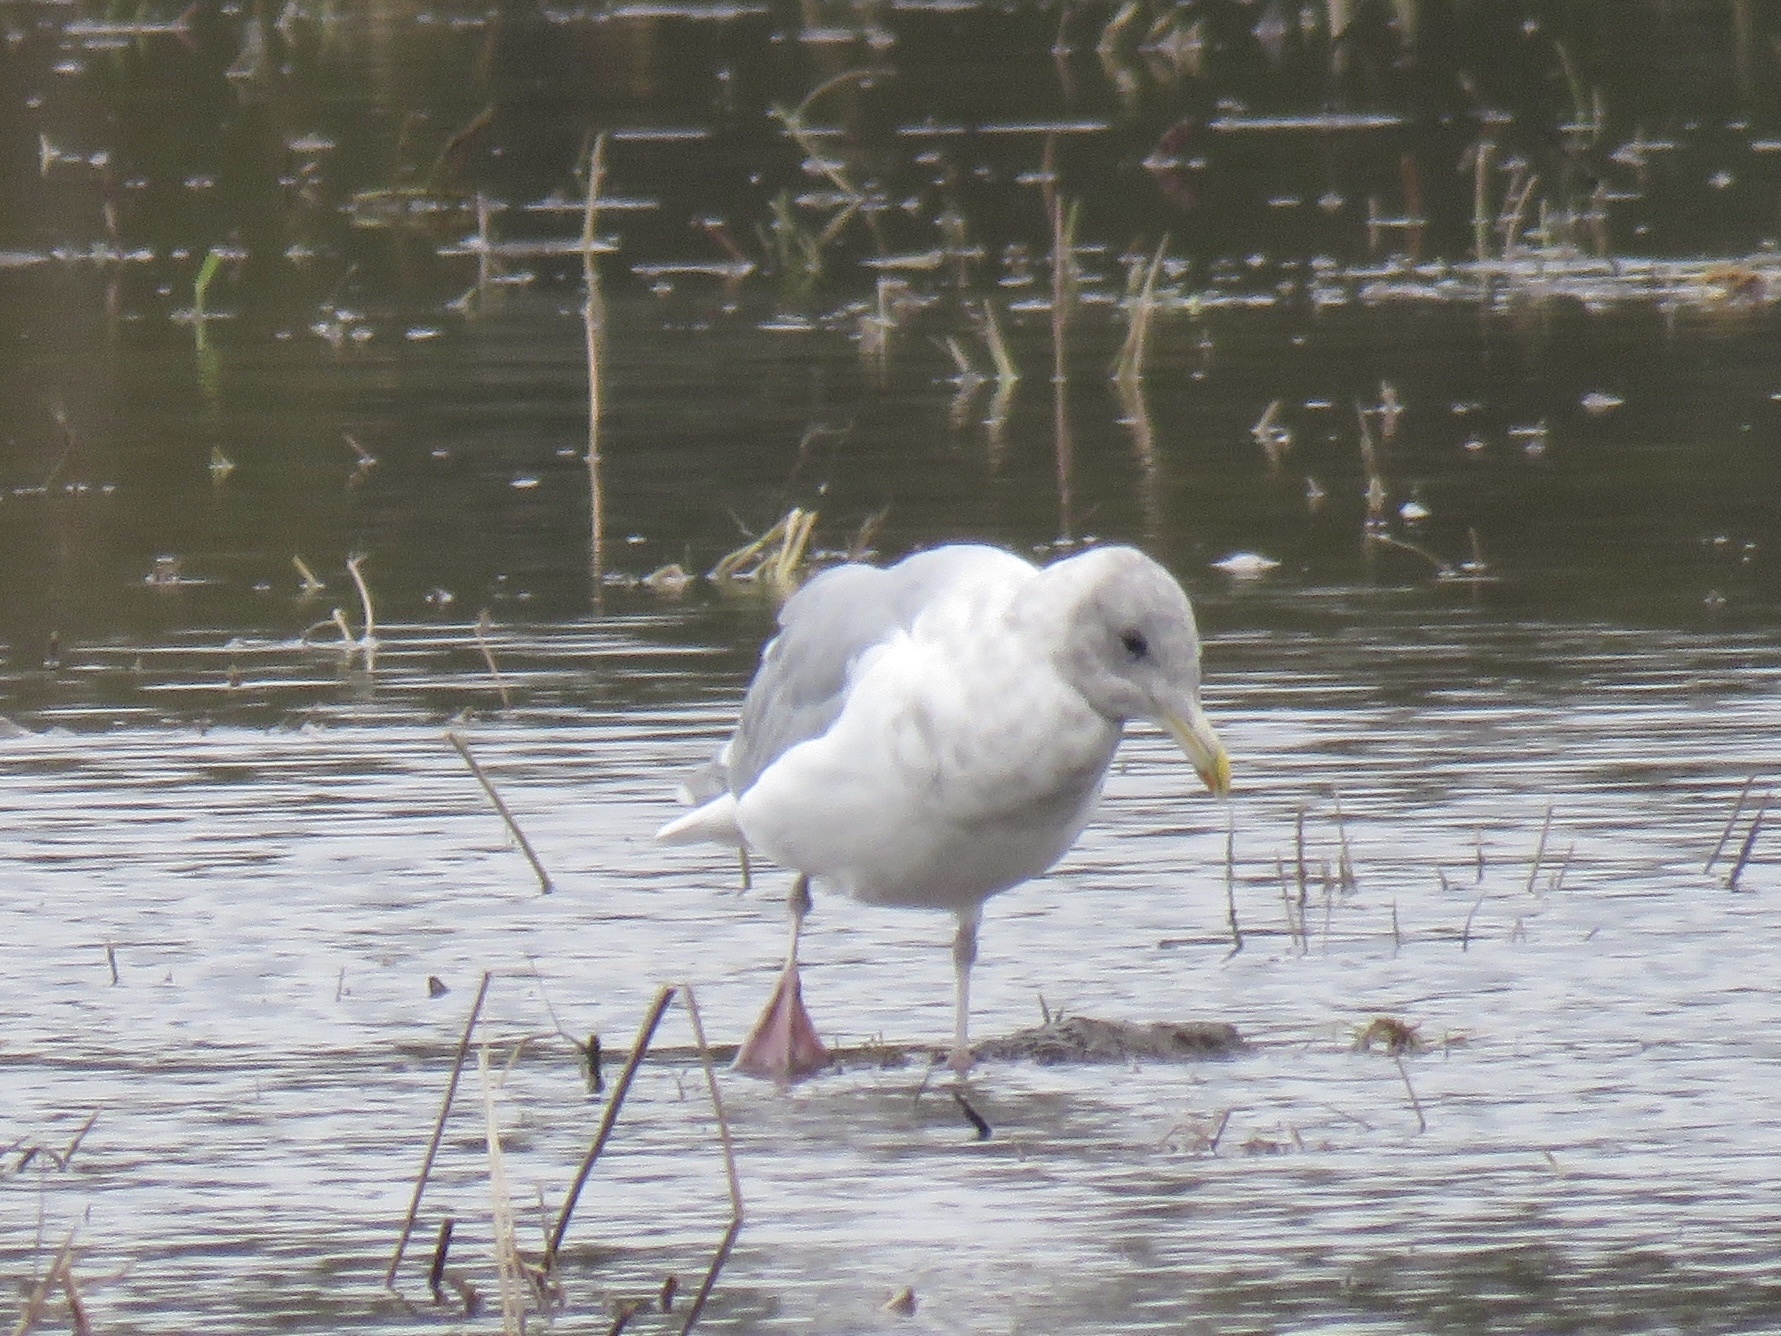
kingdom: Animalia
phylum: Chordata
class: Aves
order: Charadriiformes
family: Laridae
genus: Larus
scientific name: Larus glaucescens
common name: Glaucous-winged gull
